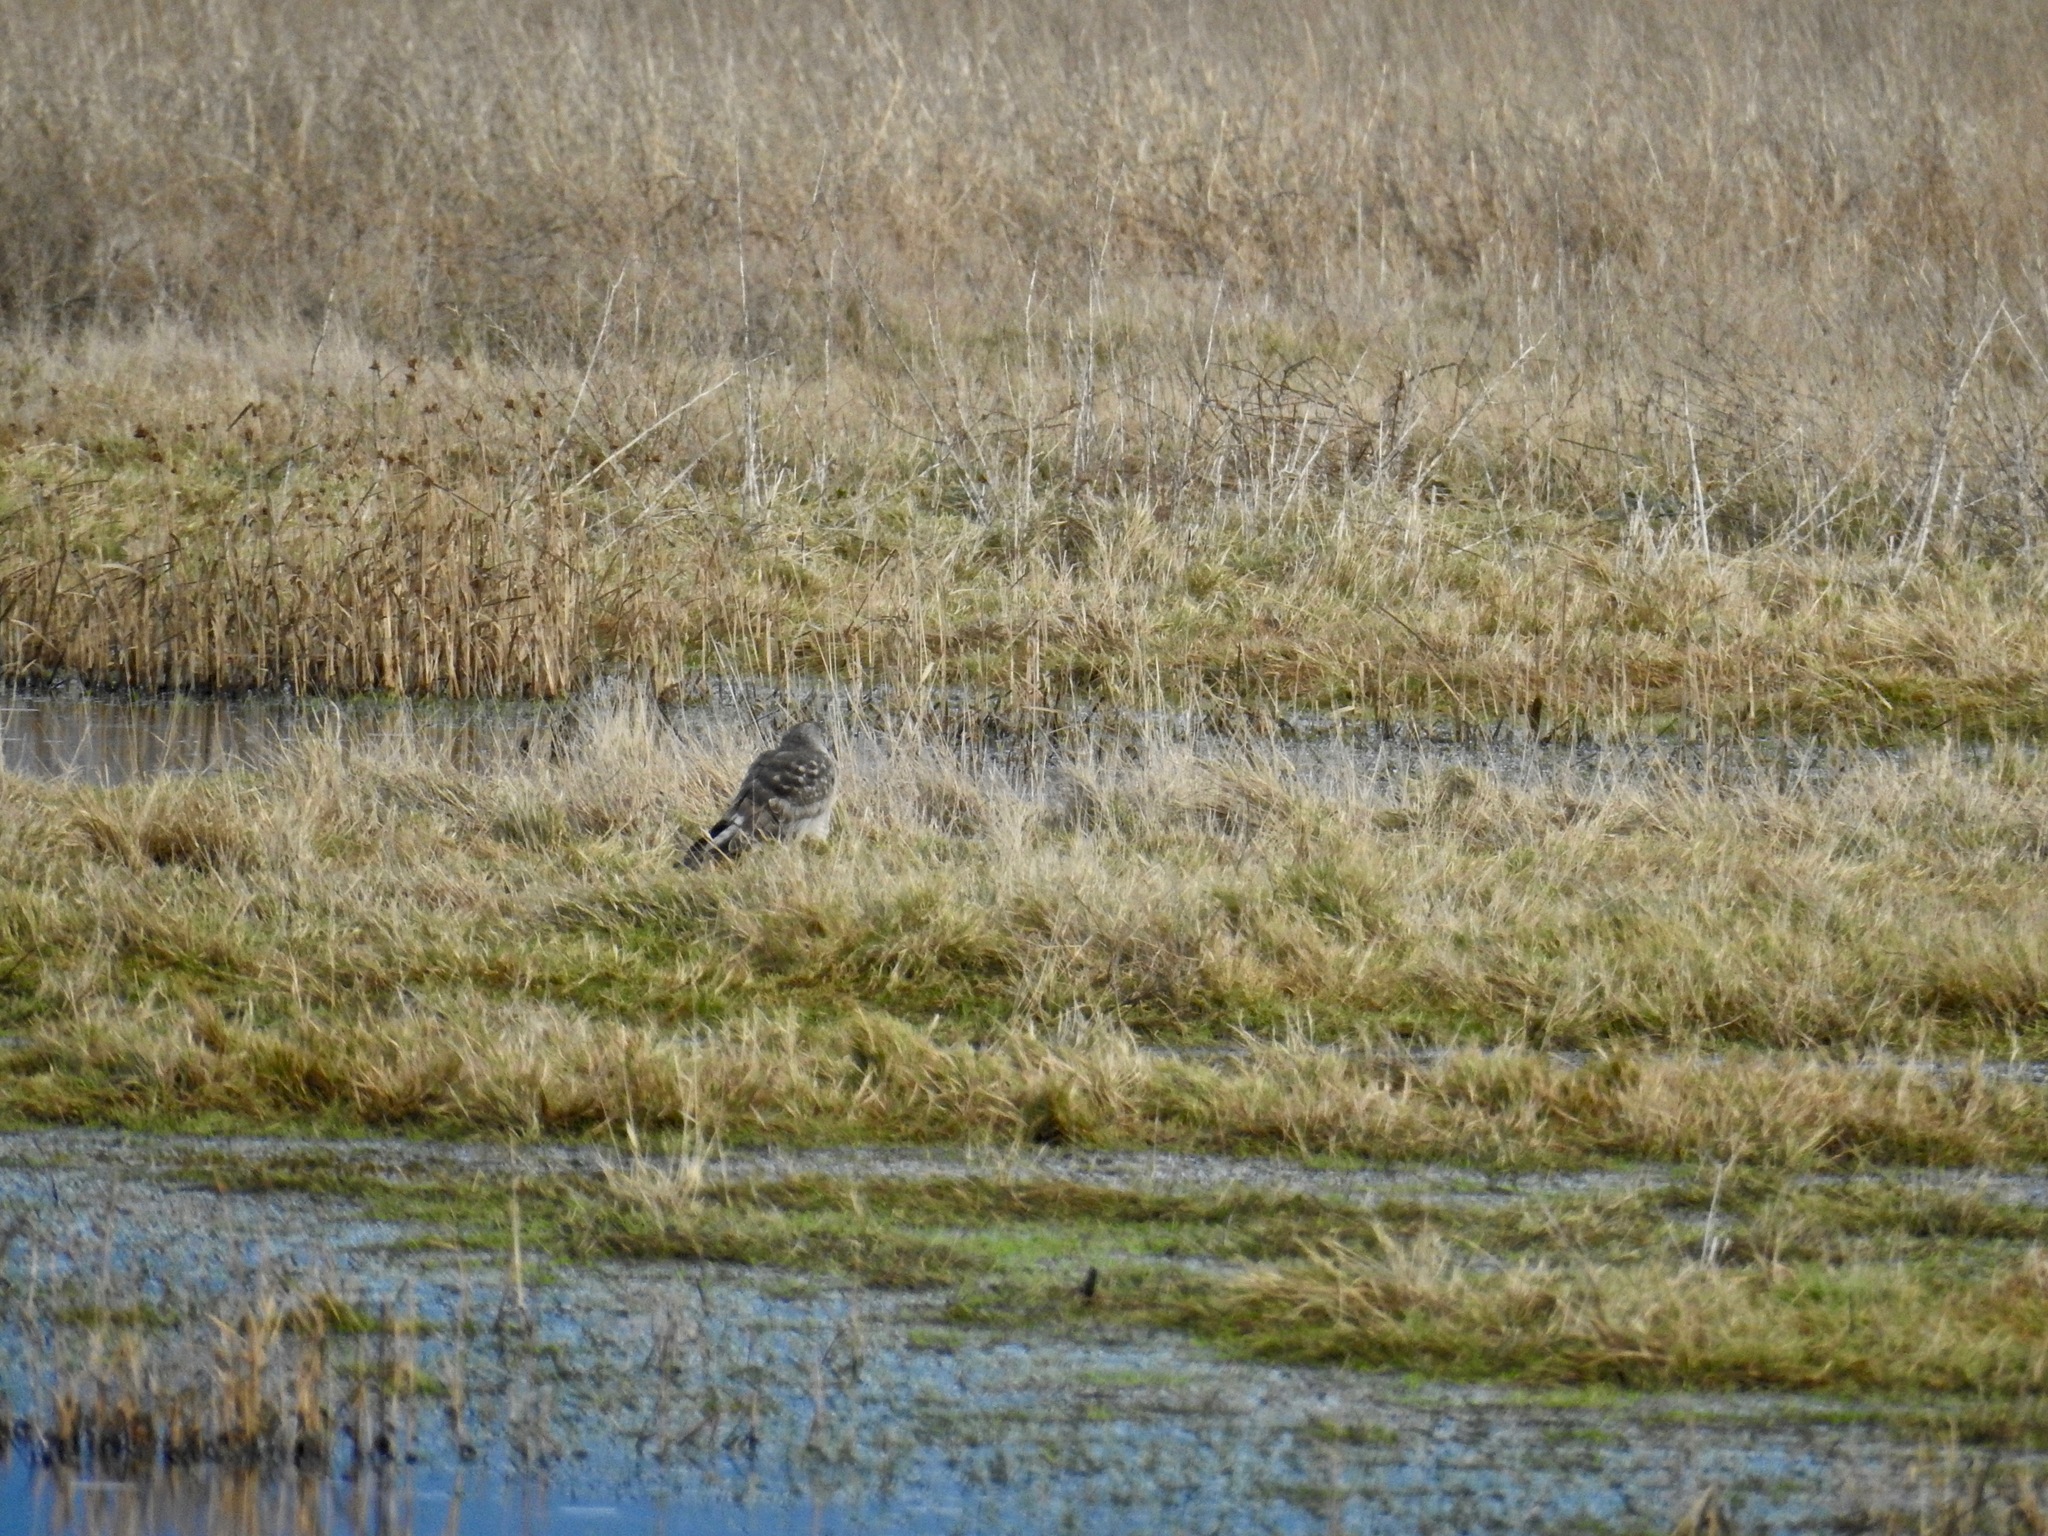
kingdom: Animalia
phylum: Chordata
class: Aves
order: Accipitriformes
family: Accipitridae
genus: Circus
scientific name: Circus cyaneus
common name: Hen harrier
